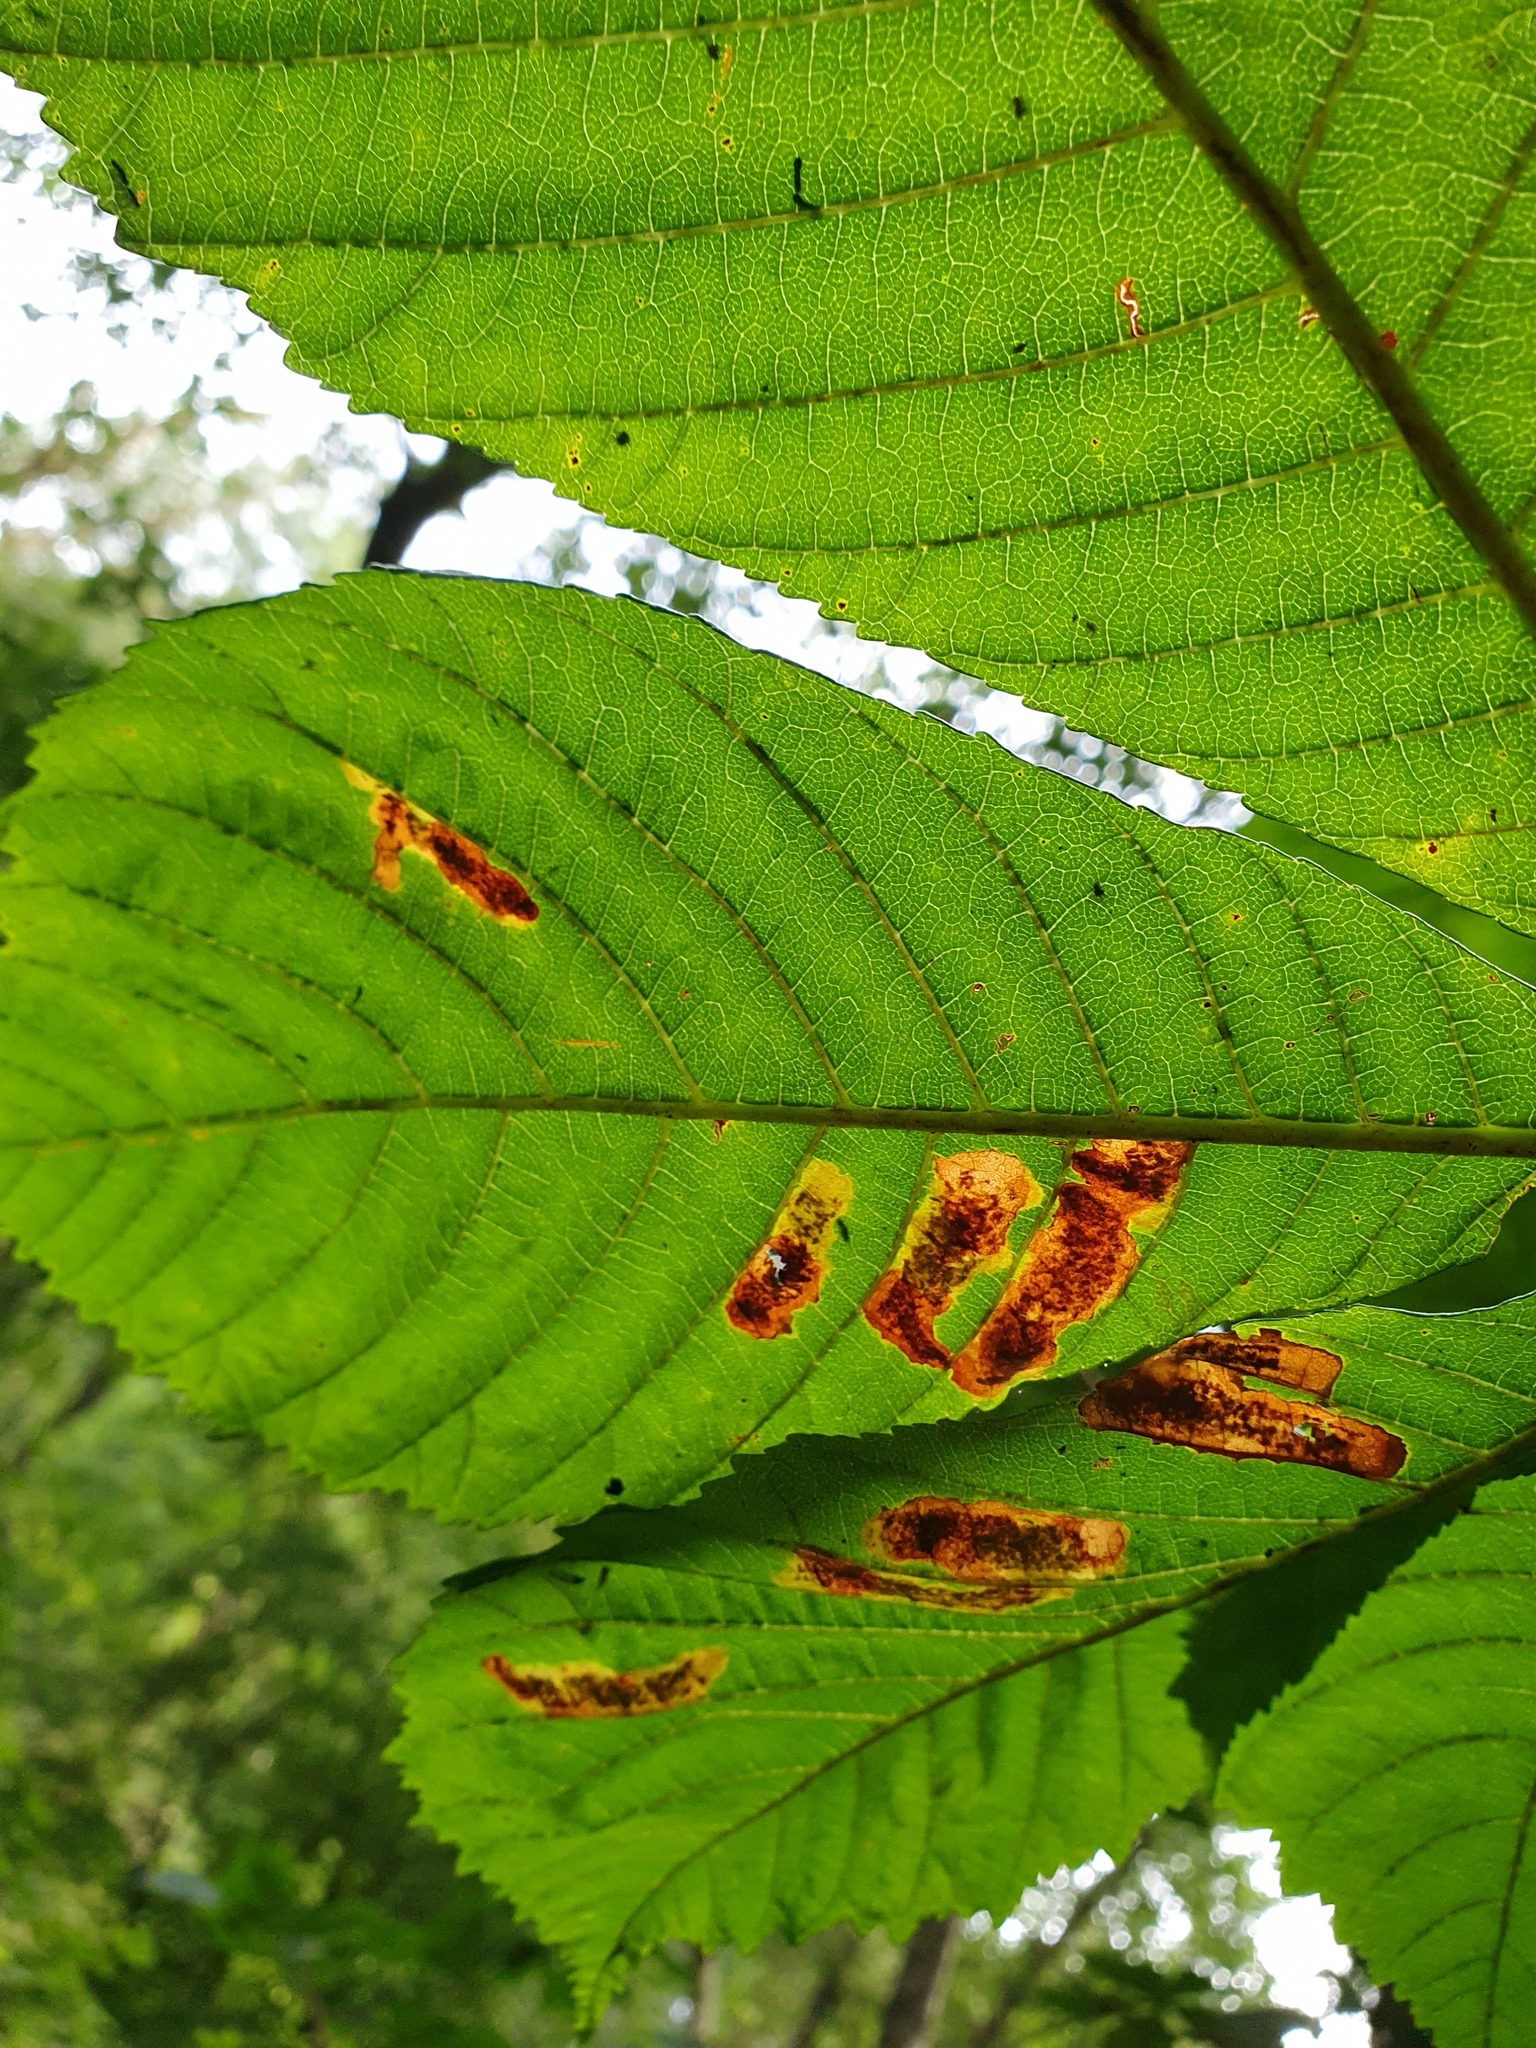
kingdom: Animalia
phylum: Arthropoda
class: Insecta
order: Lepidoptera
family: Gracillariidae
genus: Cameraria
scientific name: Cameraria ohridella
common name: Horse-chestnut leaf-miner
